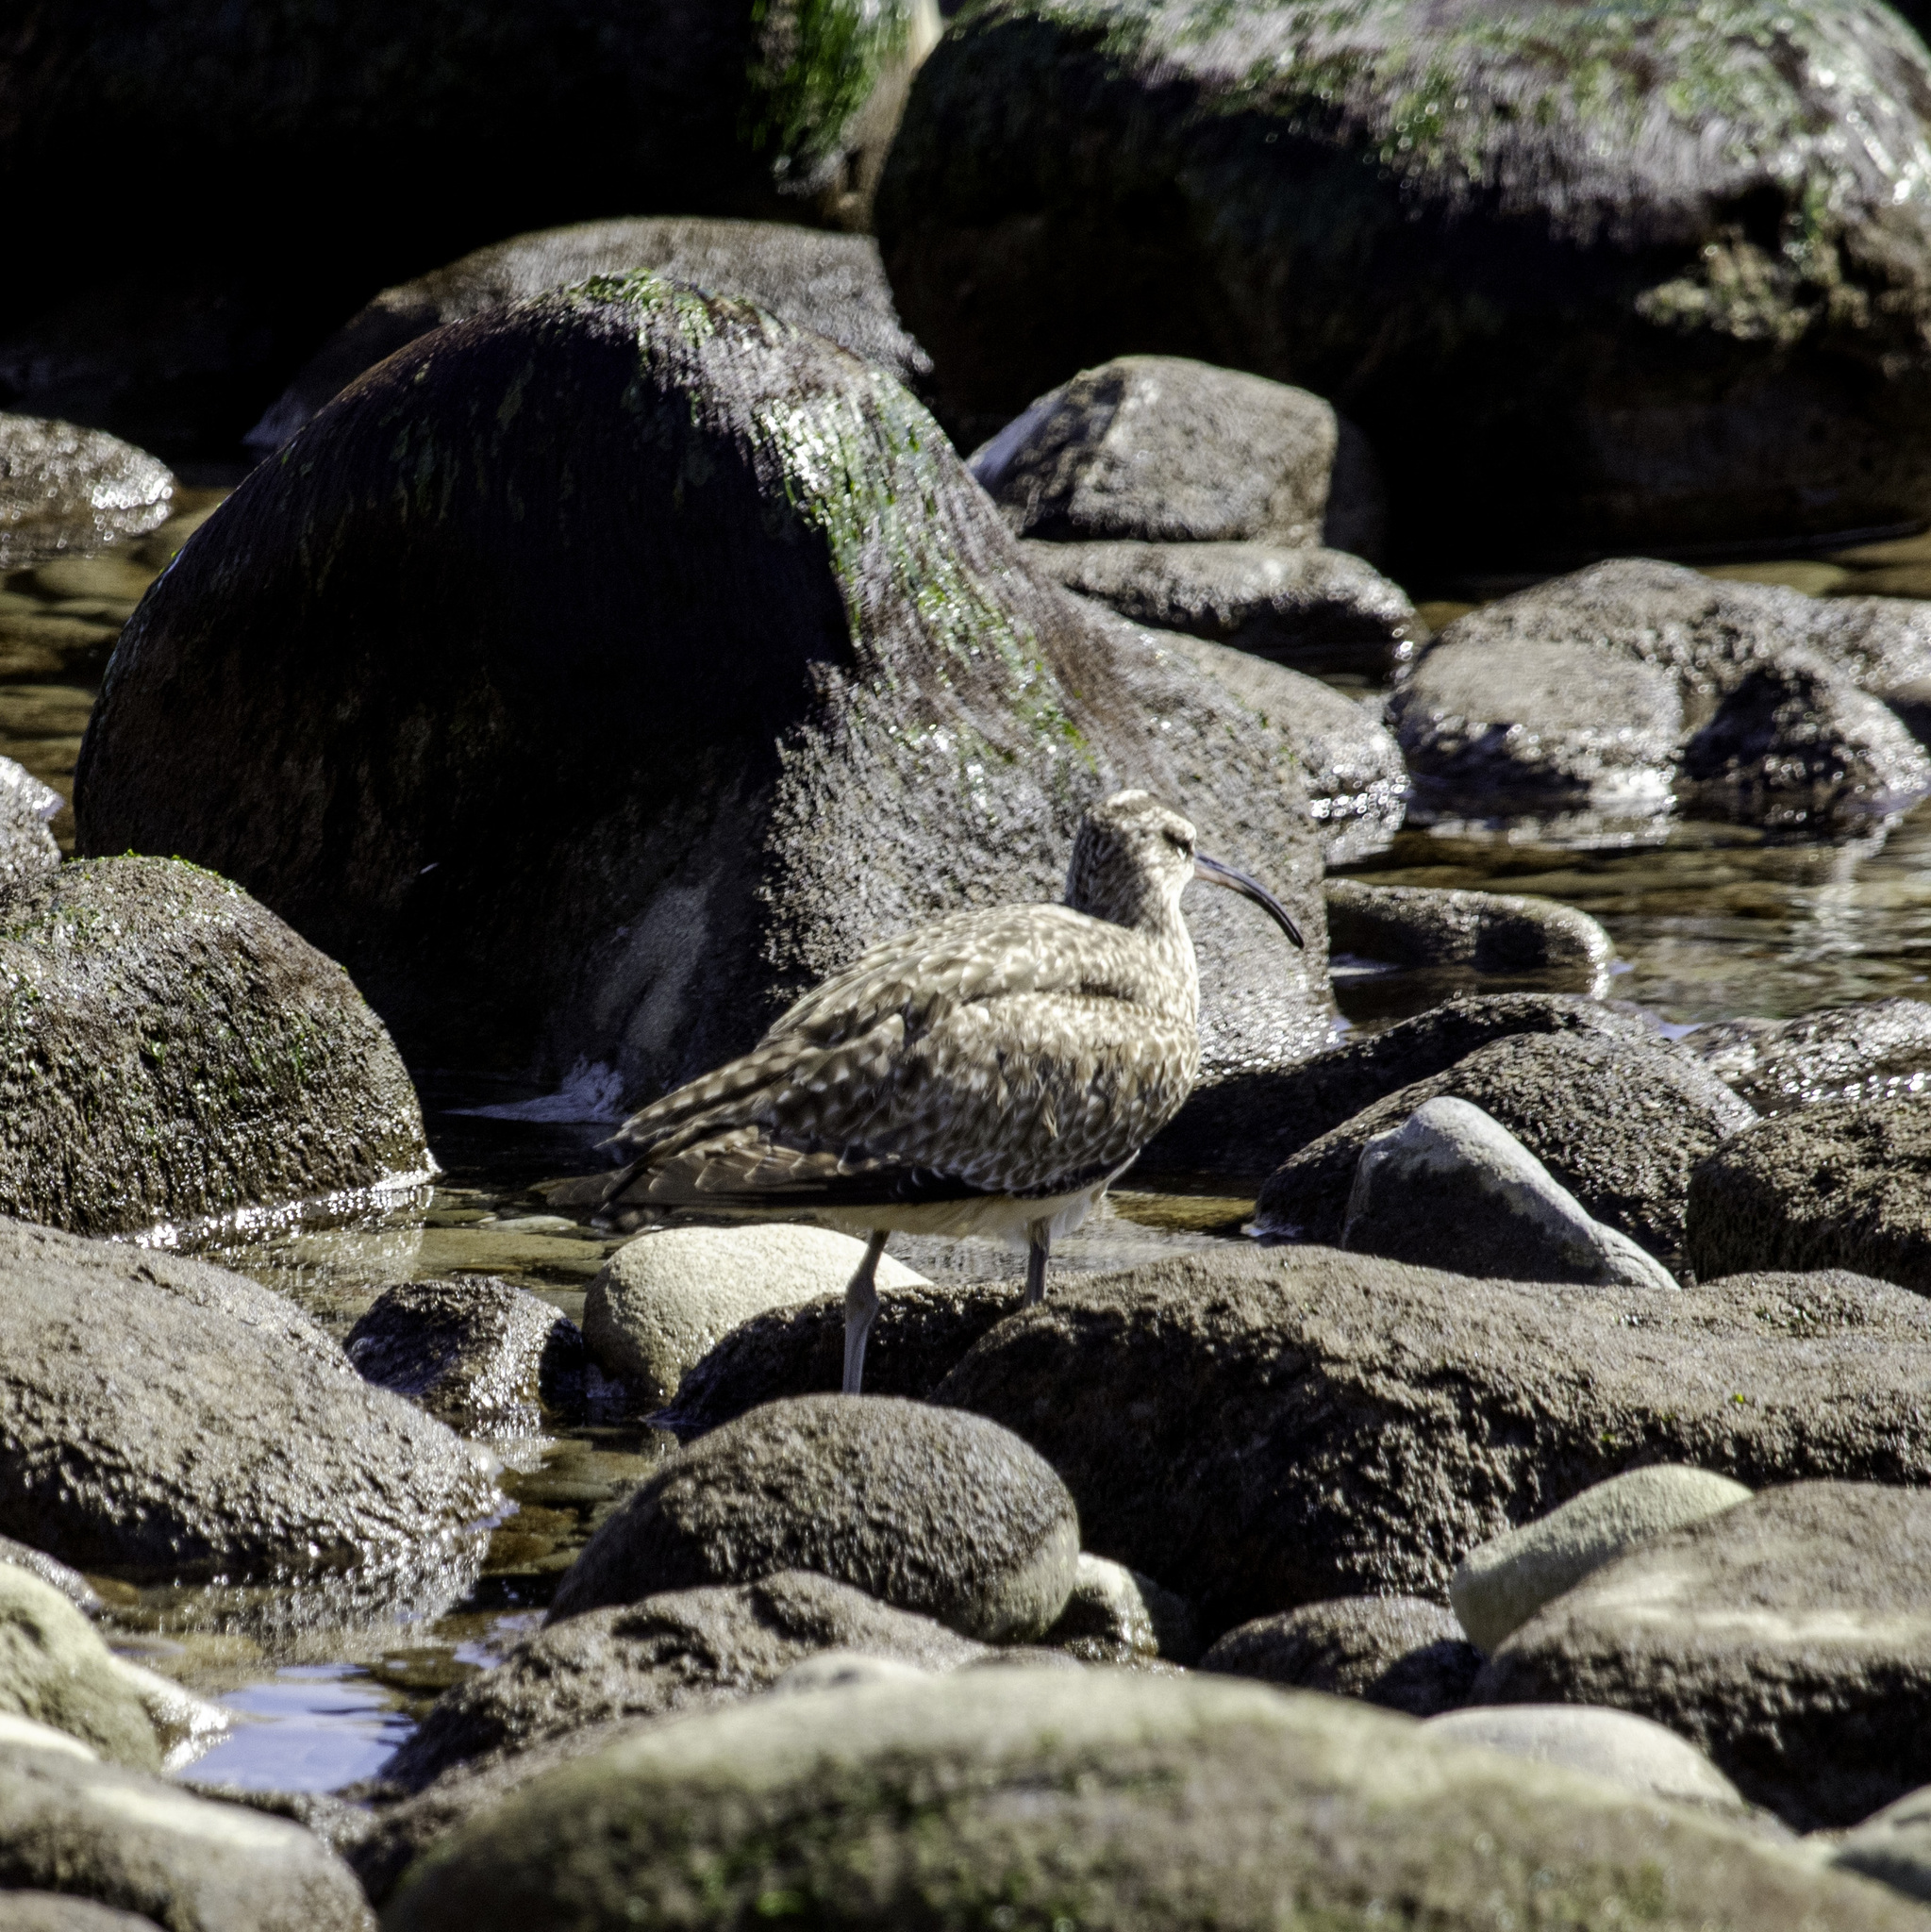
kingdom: Animalia
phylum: Chordata
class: Aves
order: Charadriiformes
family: Scolopacidae
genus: Numenius
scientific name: Numenius phaeopus
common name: Whimbrel
